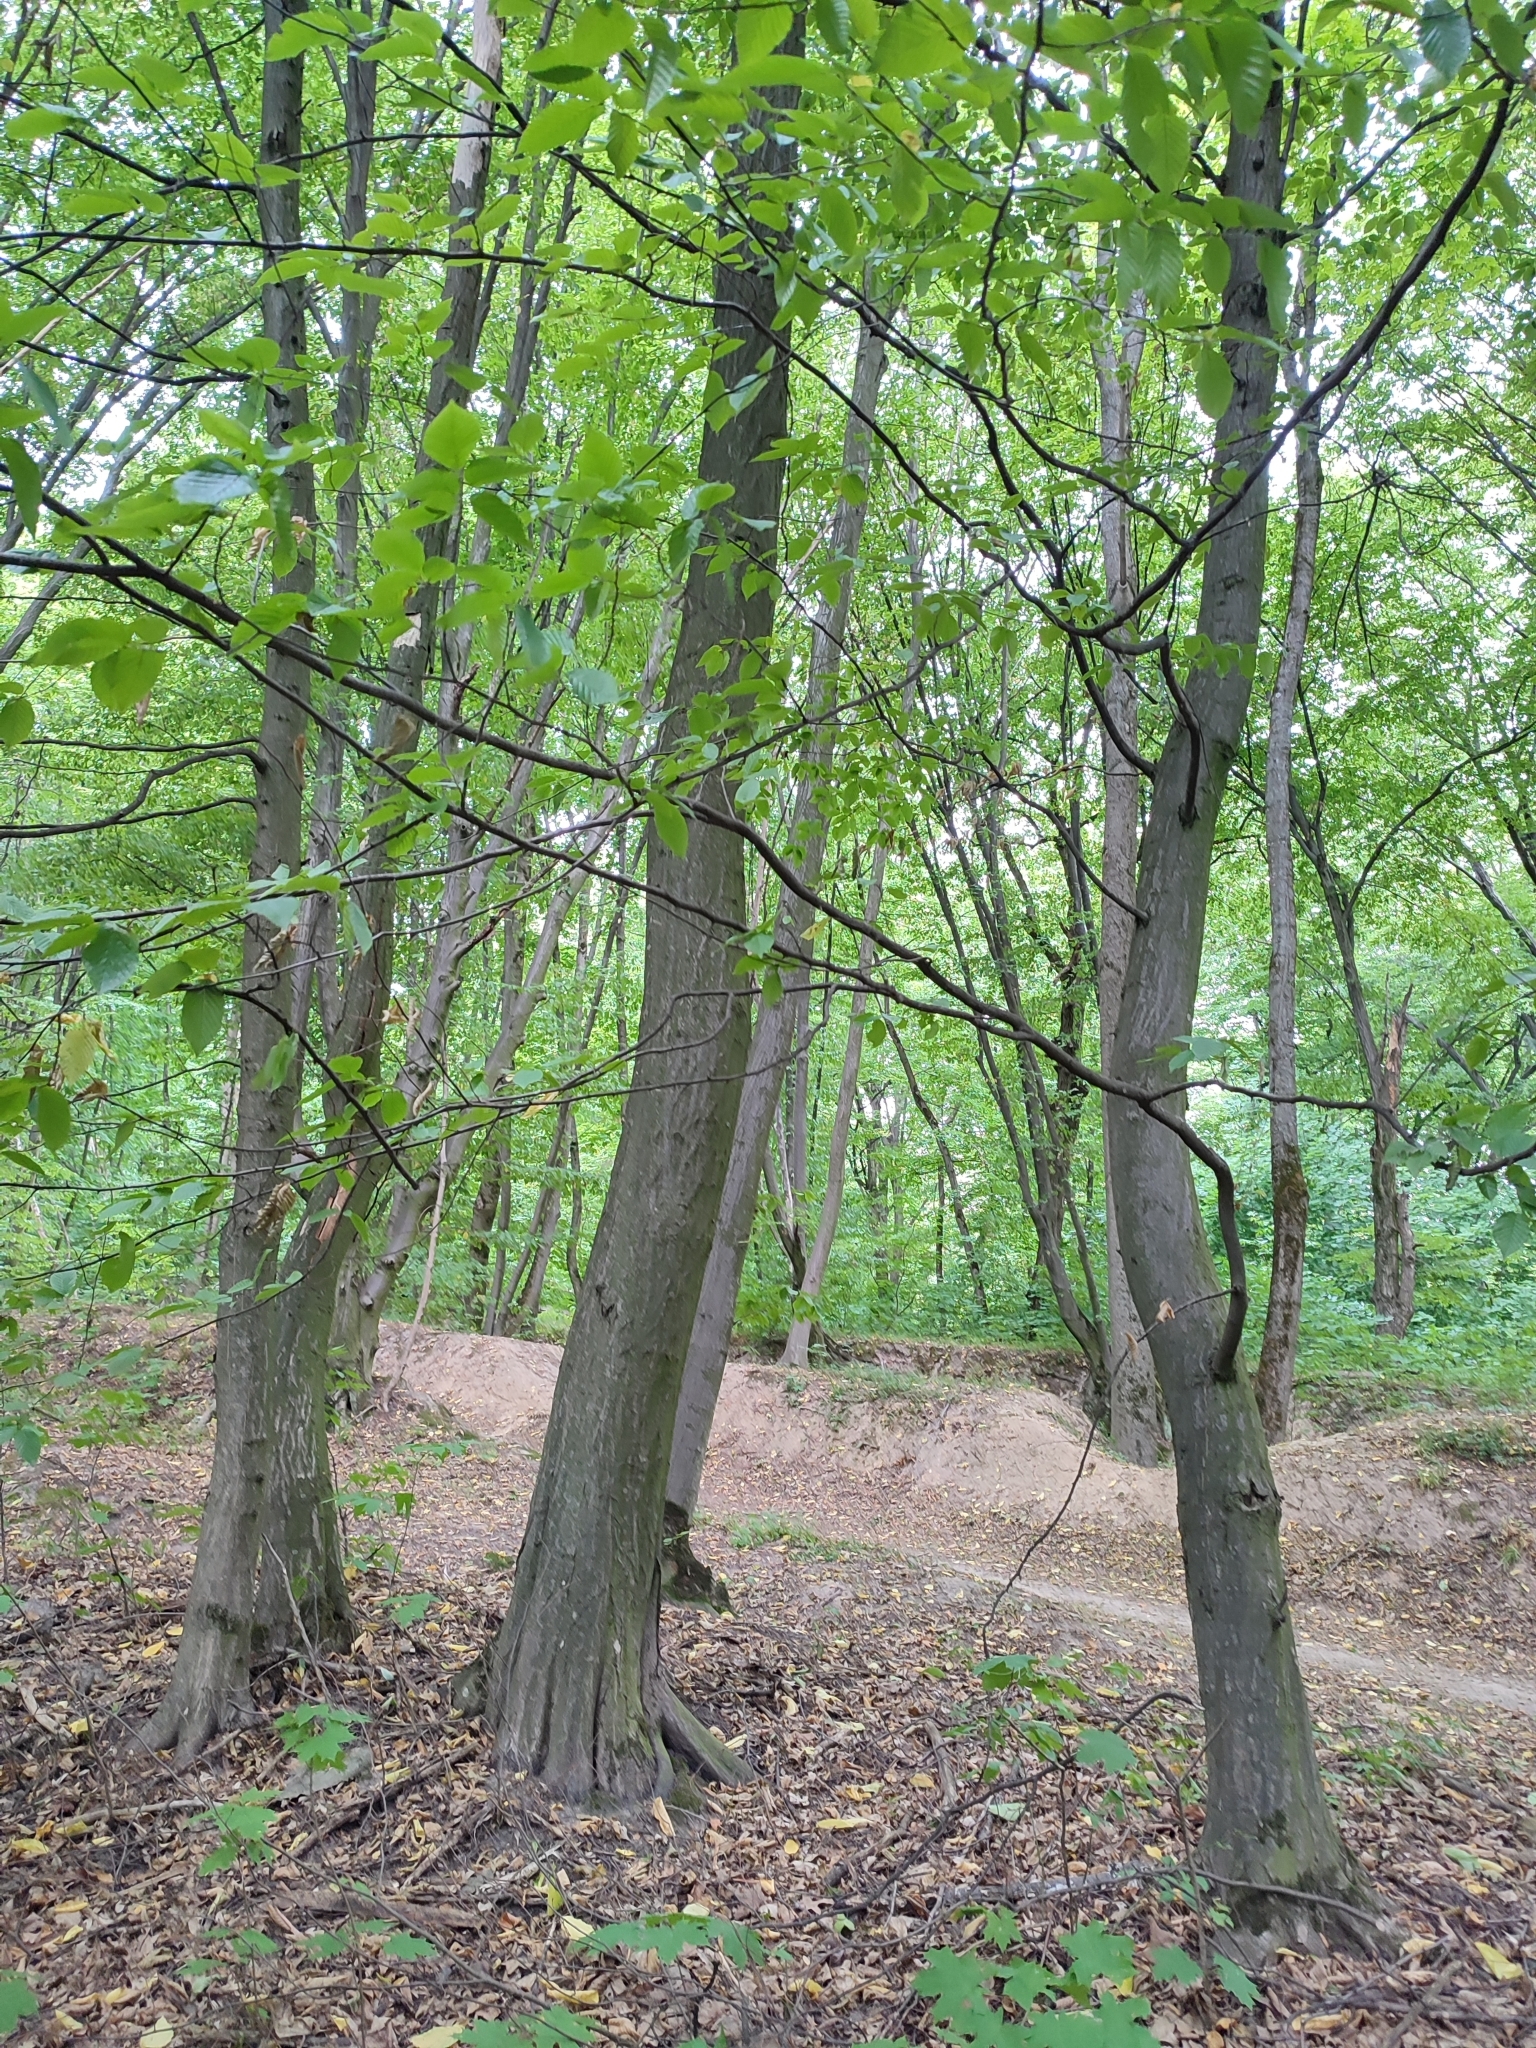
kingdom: Plantae
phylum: Tracheophyta
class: Magnoliopsida
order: Fagales
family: Betulaceae
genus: Carpinus
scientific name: Carpinus betulus
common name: Hornbeam
